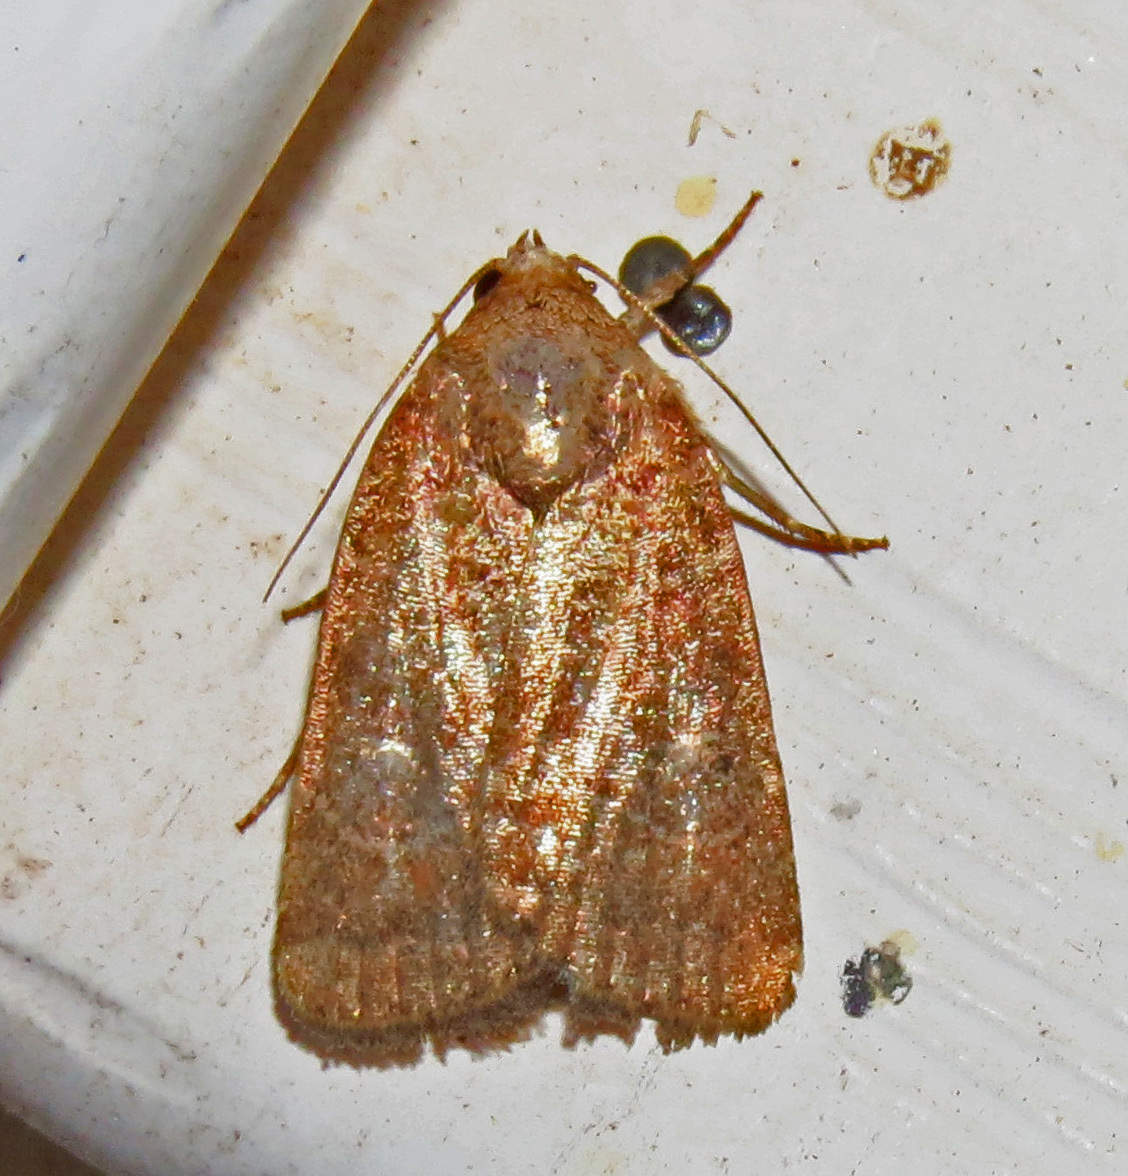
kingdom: Animalia
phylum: Arthropoda
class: Insecta
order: Lepidoptera
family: Noctuidae
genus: Elaphria
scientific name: Elaphria grata
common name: Grateful midget moth
